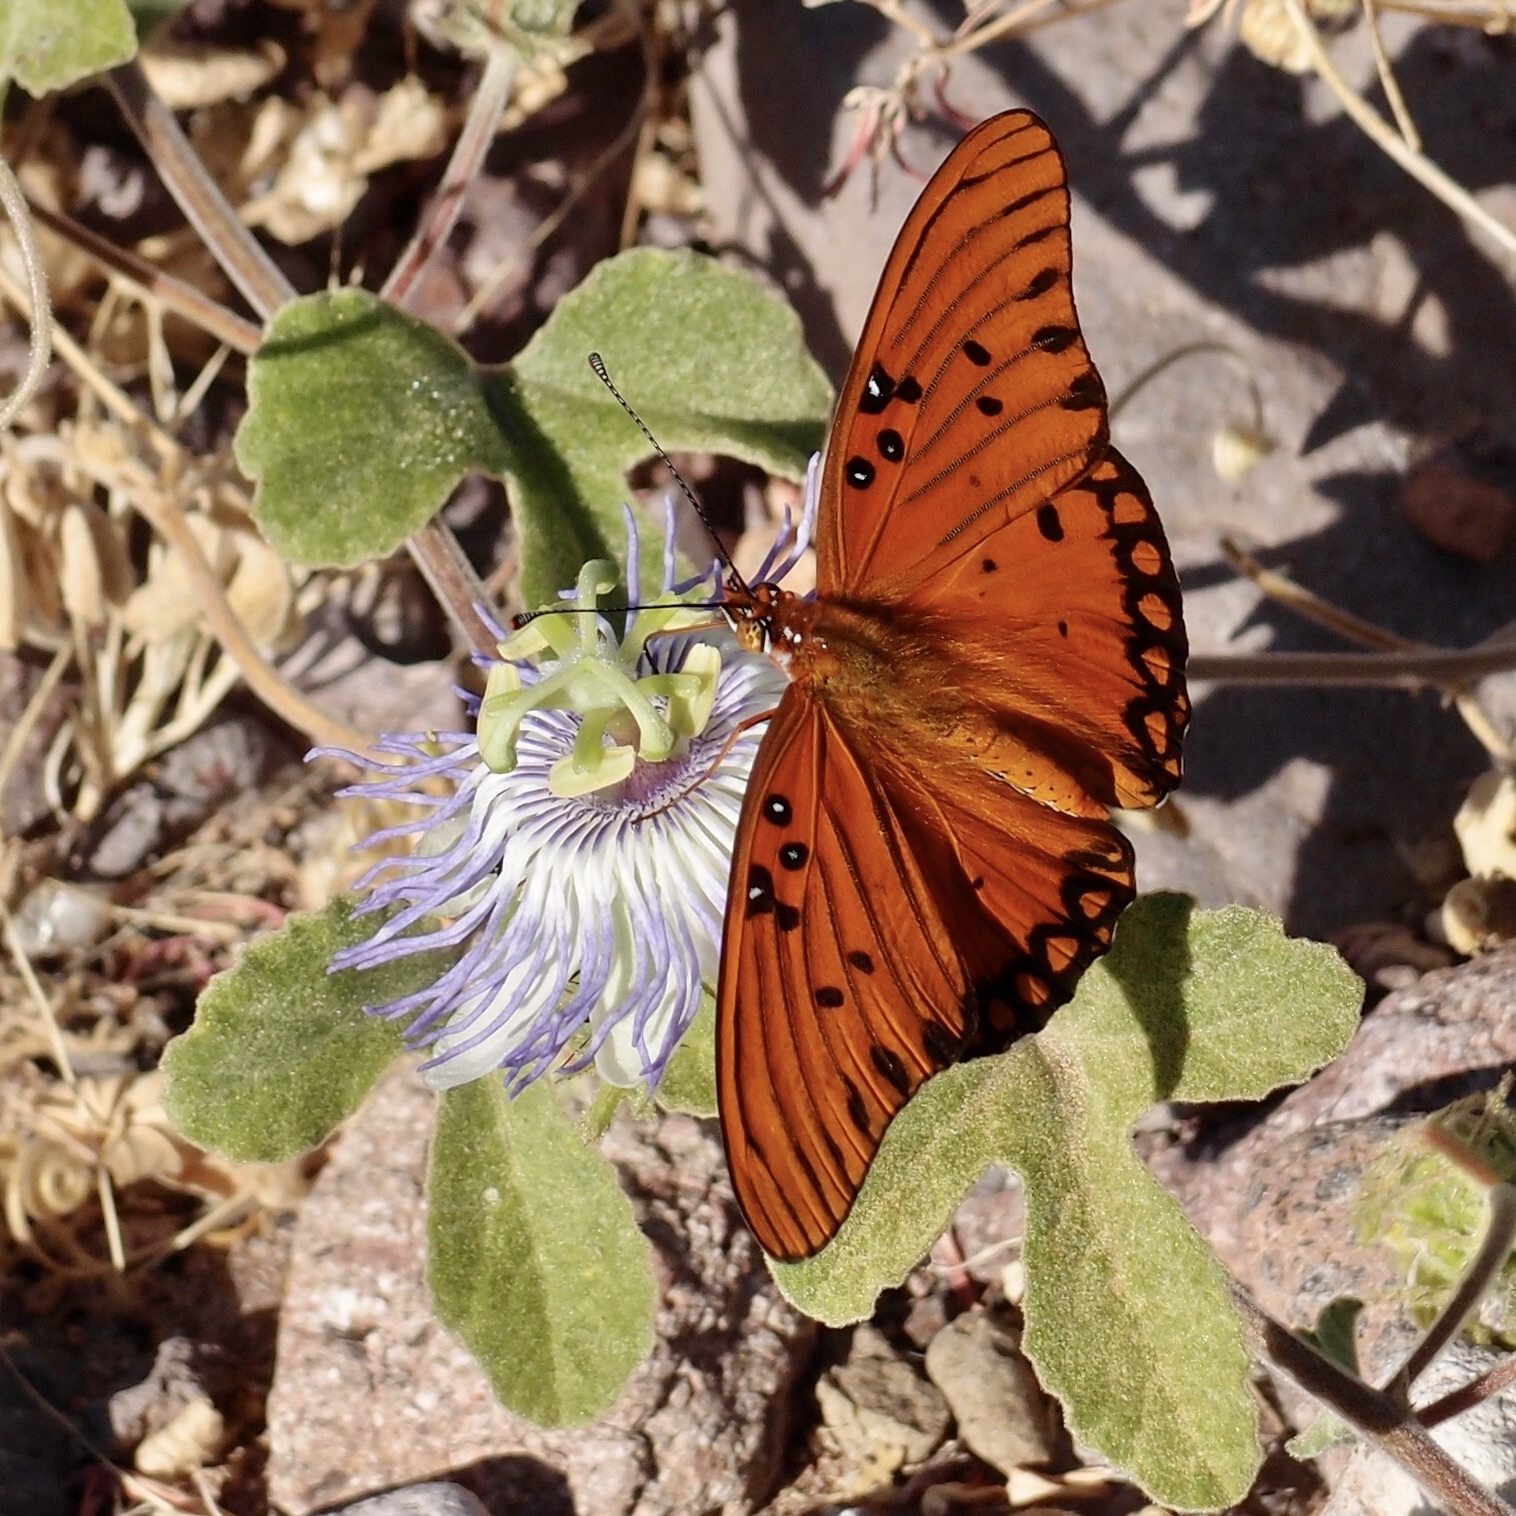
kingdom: Plantae
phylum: Tracheophyta
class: Magnoliopsida
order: Malpighiales
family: Passifloraceae
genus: Passiflora
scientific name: Passiflora arida
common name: Desert passionflower
